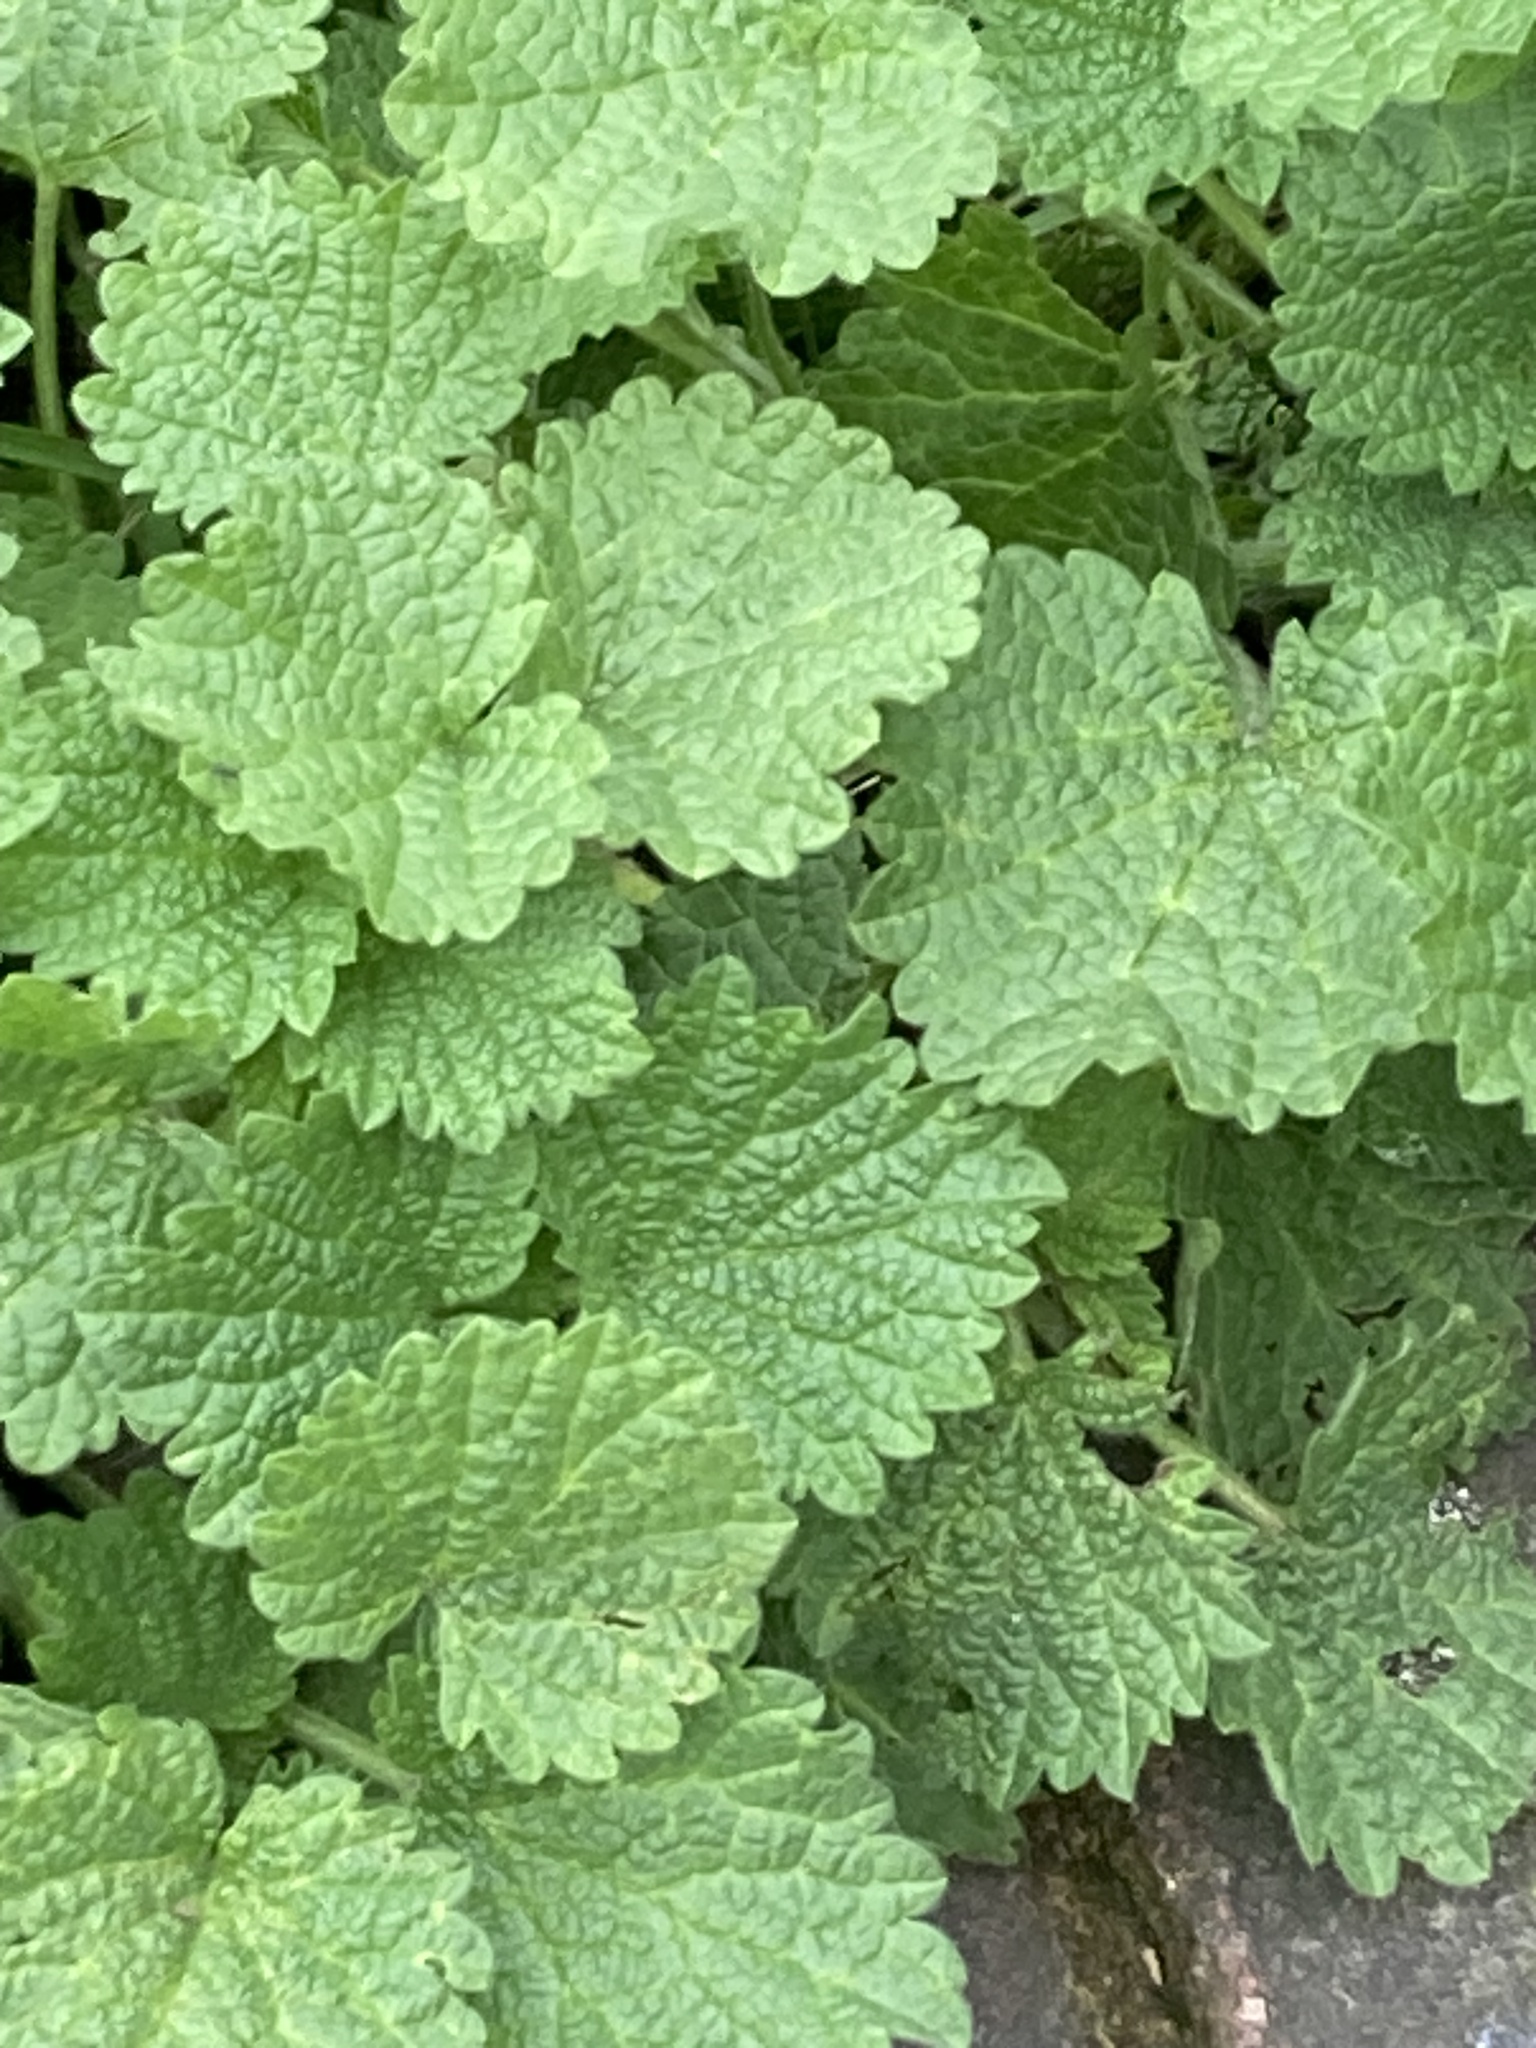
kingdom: Plantae
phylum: Tracheophyta
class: Magnoliopsida
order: Lamiales
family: Lamiaceae
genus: Ballota
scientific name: Ballota nigra
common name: Black horehound
